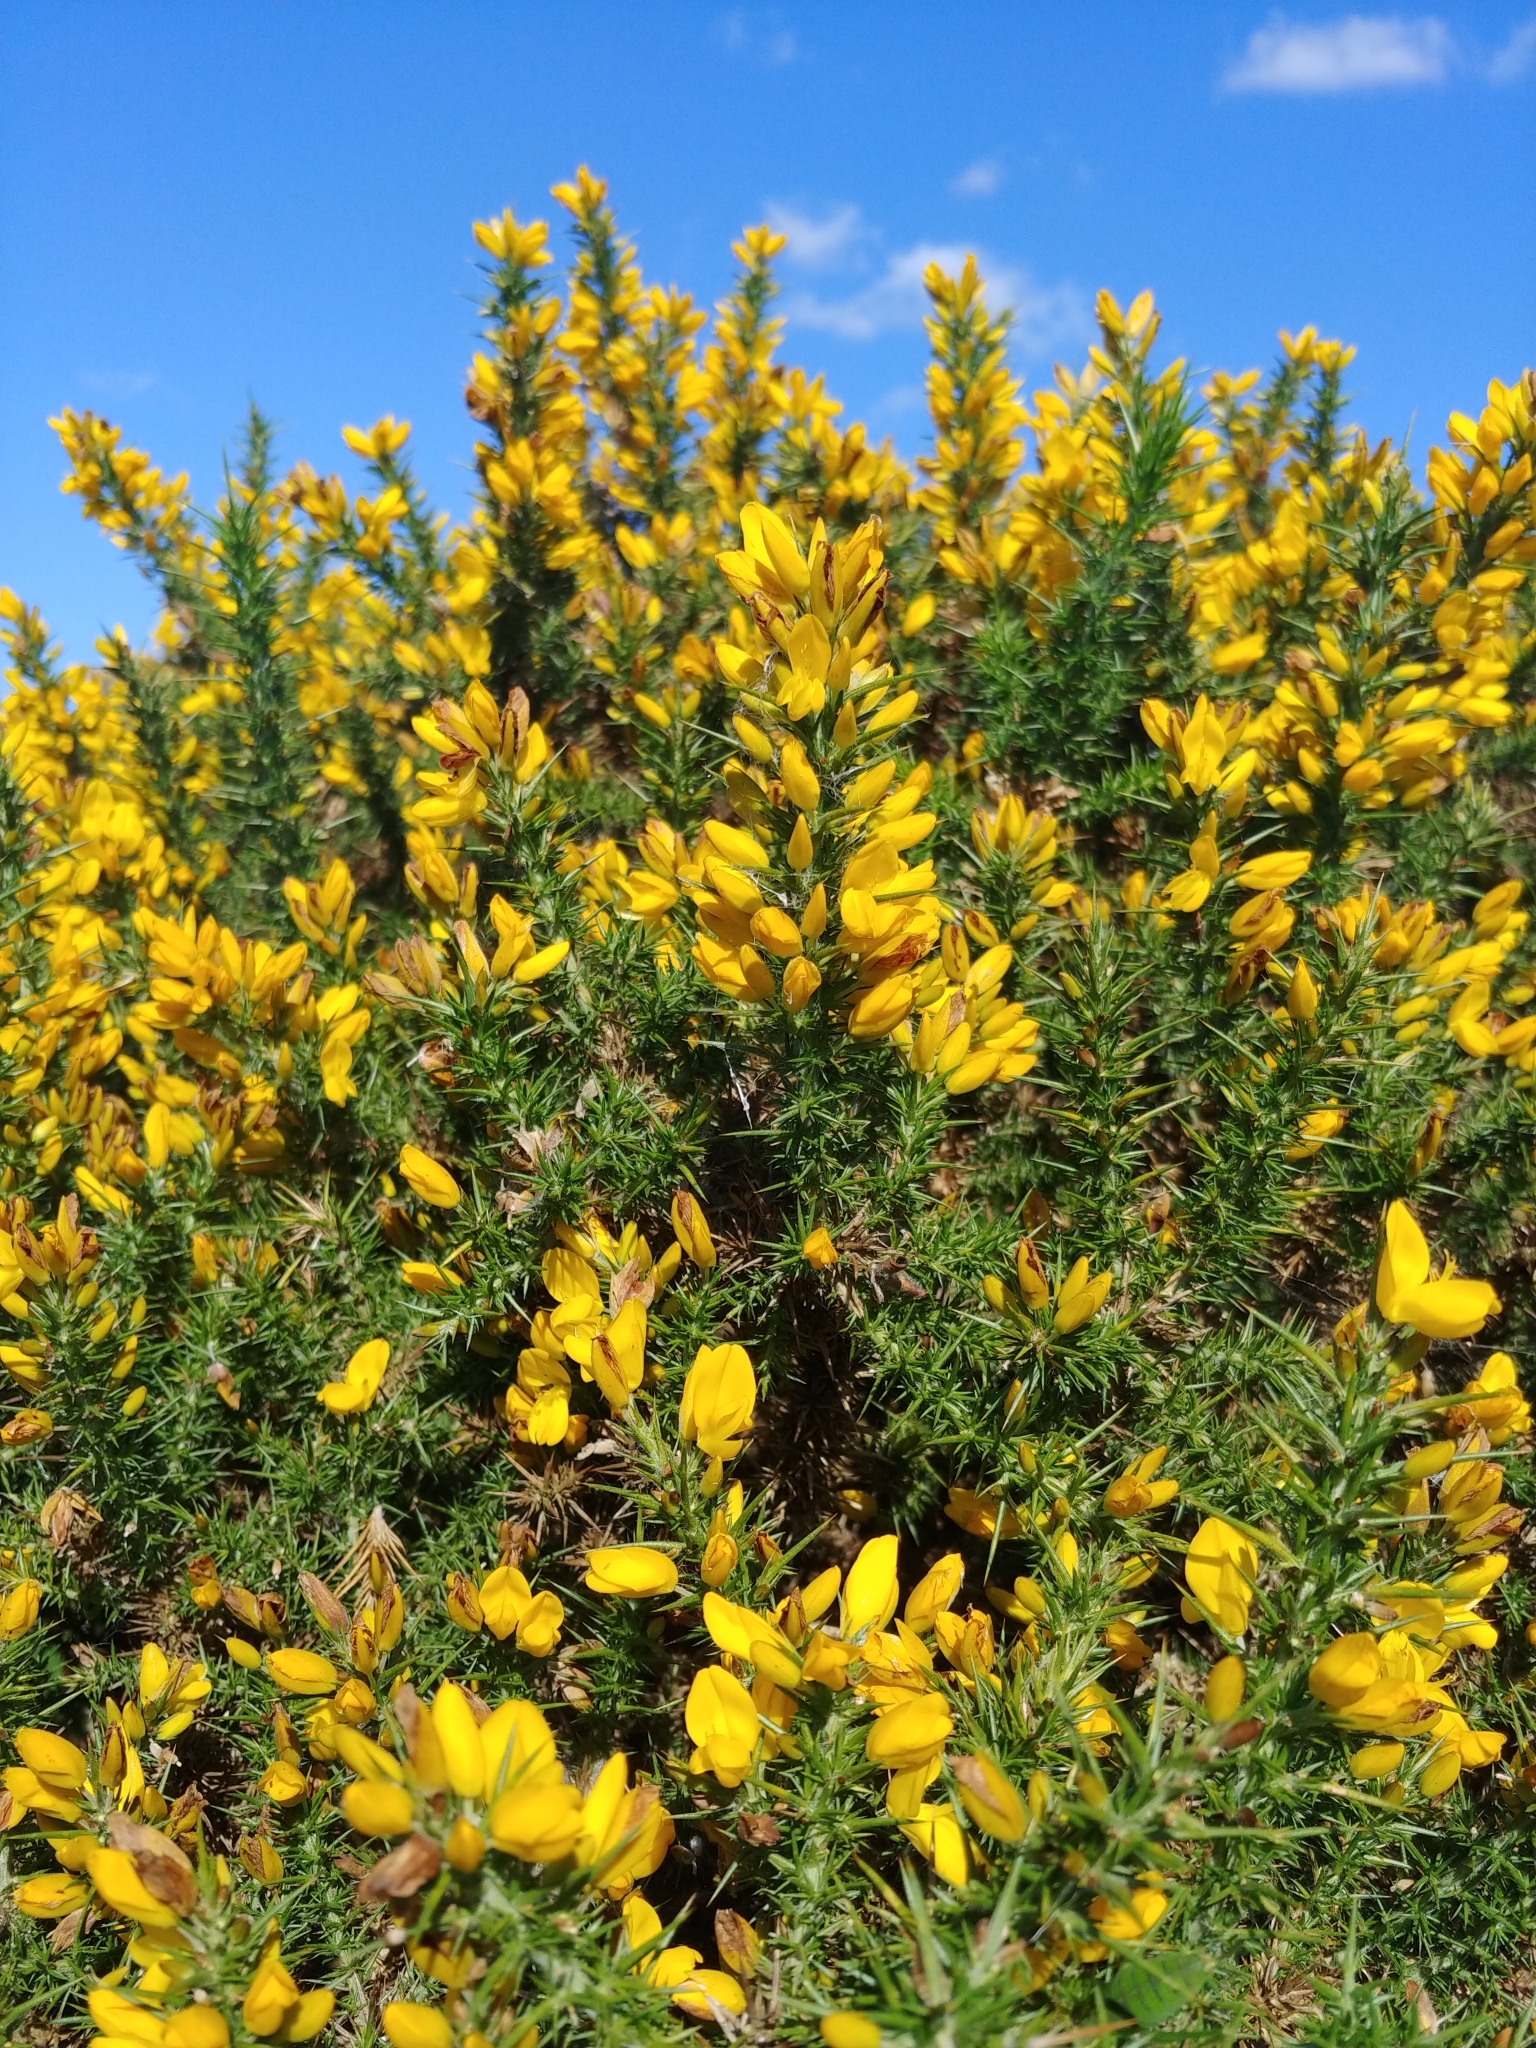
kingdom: Plantae
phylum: Tracheophyta
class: Magnoliopsida
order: Fabales
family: Fabaceae
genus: Ulex
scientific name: Ulex europaeus
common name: Common gorse
